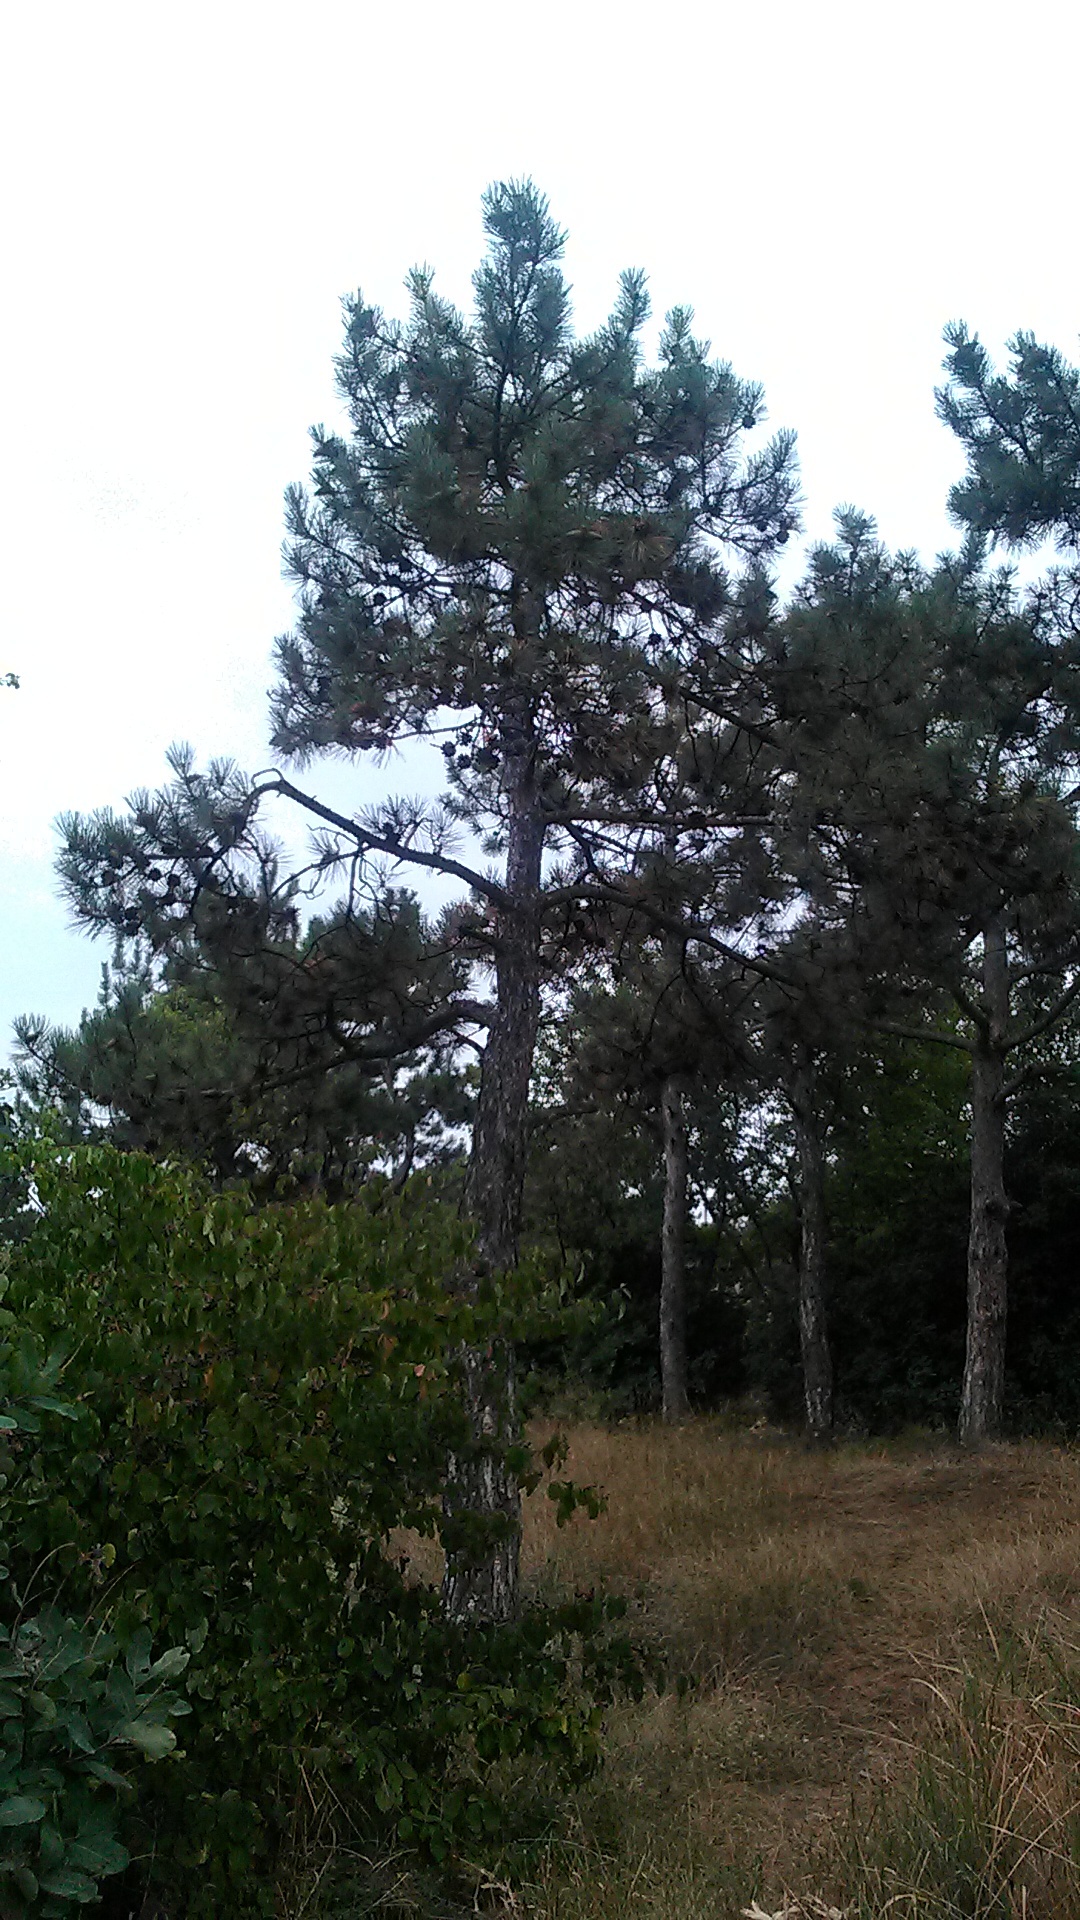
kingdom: Plantae
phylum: Tracheophyta
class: Pinopsida
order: Pinales
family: Pinaceae
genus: Pinus
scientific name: Pinus nigra
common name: Austrian pine
